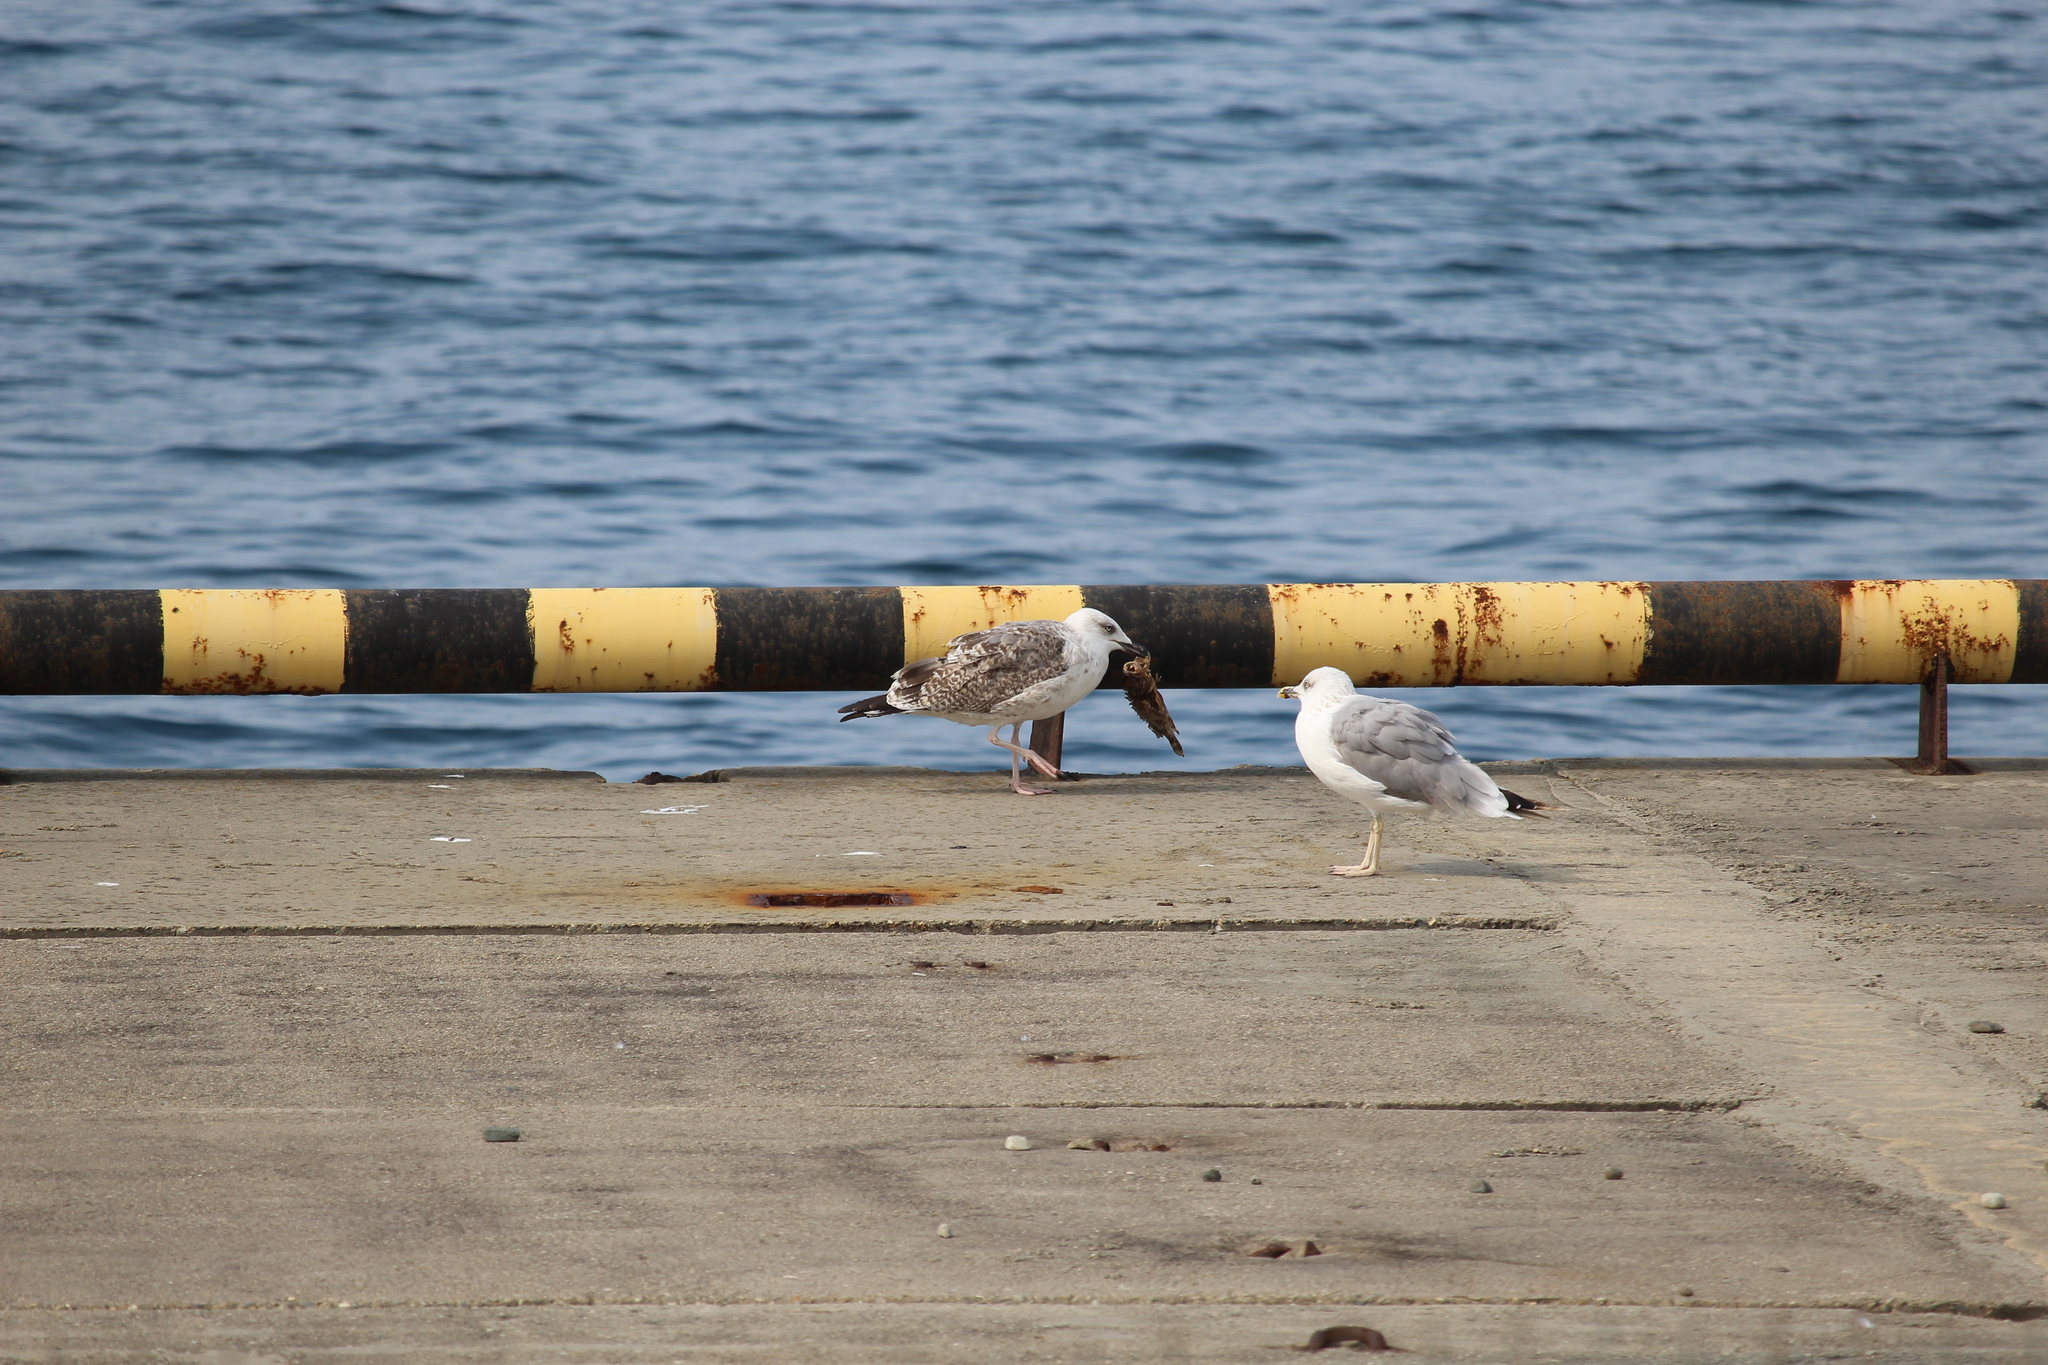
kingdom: Animalia
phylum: Chordata
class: Aves
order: Charadriiformes
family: Laridae
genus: Larus
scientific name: Larus michahellis
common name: Yellow-legged gull
